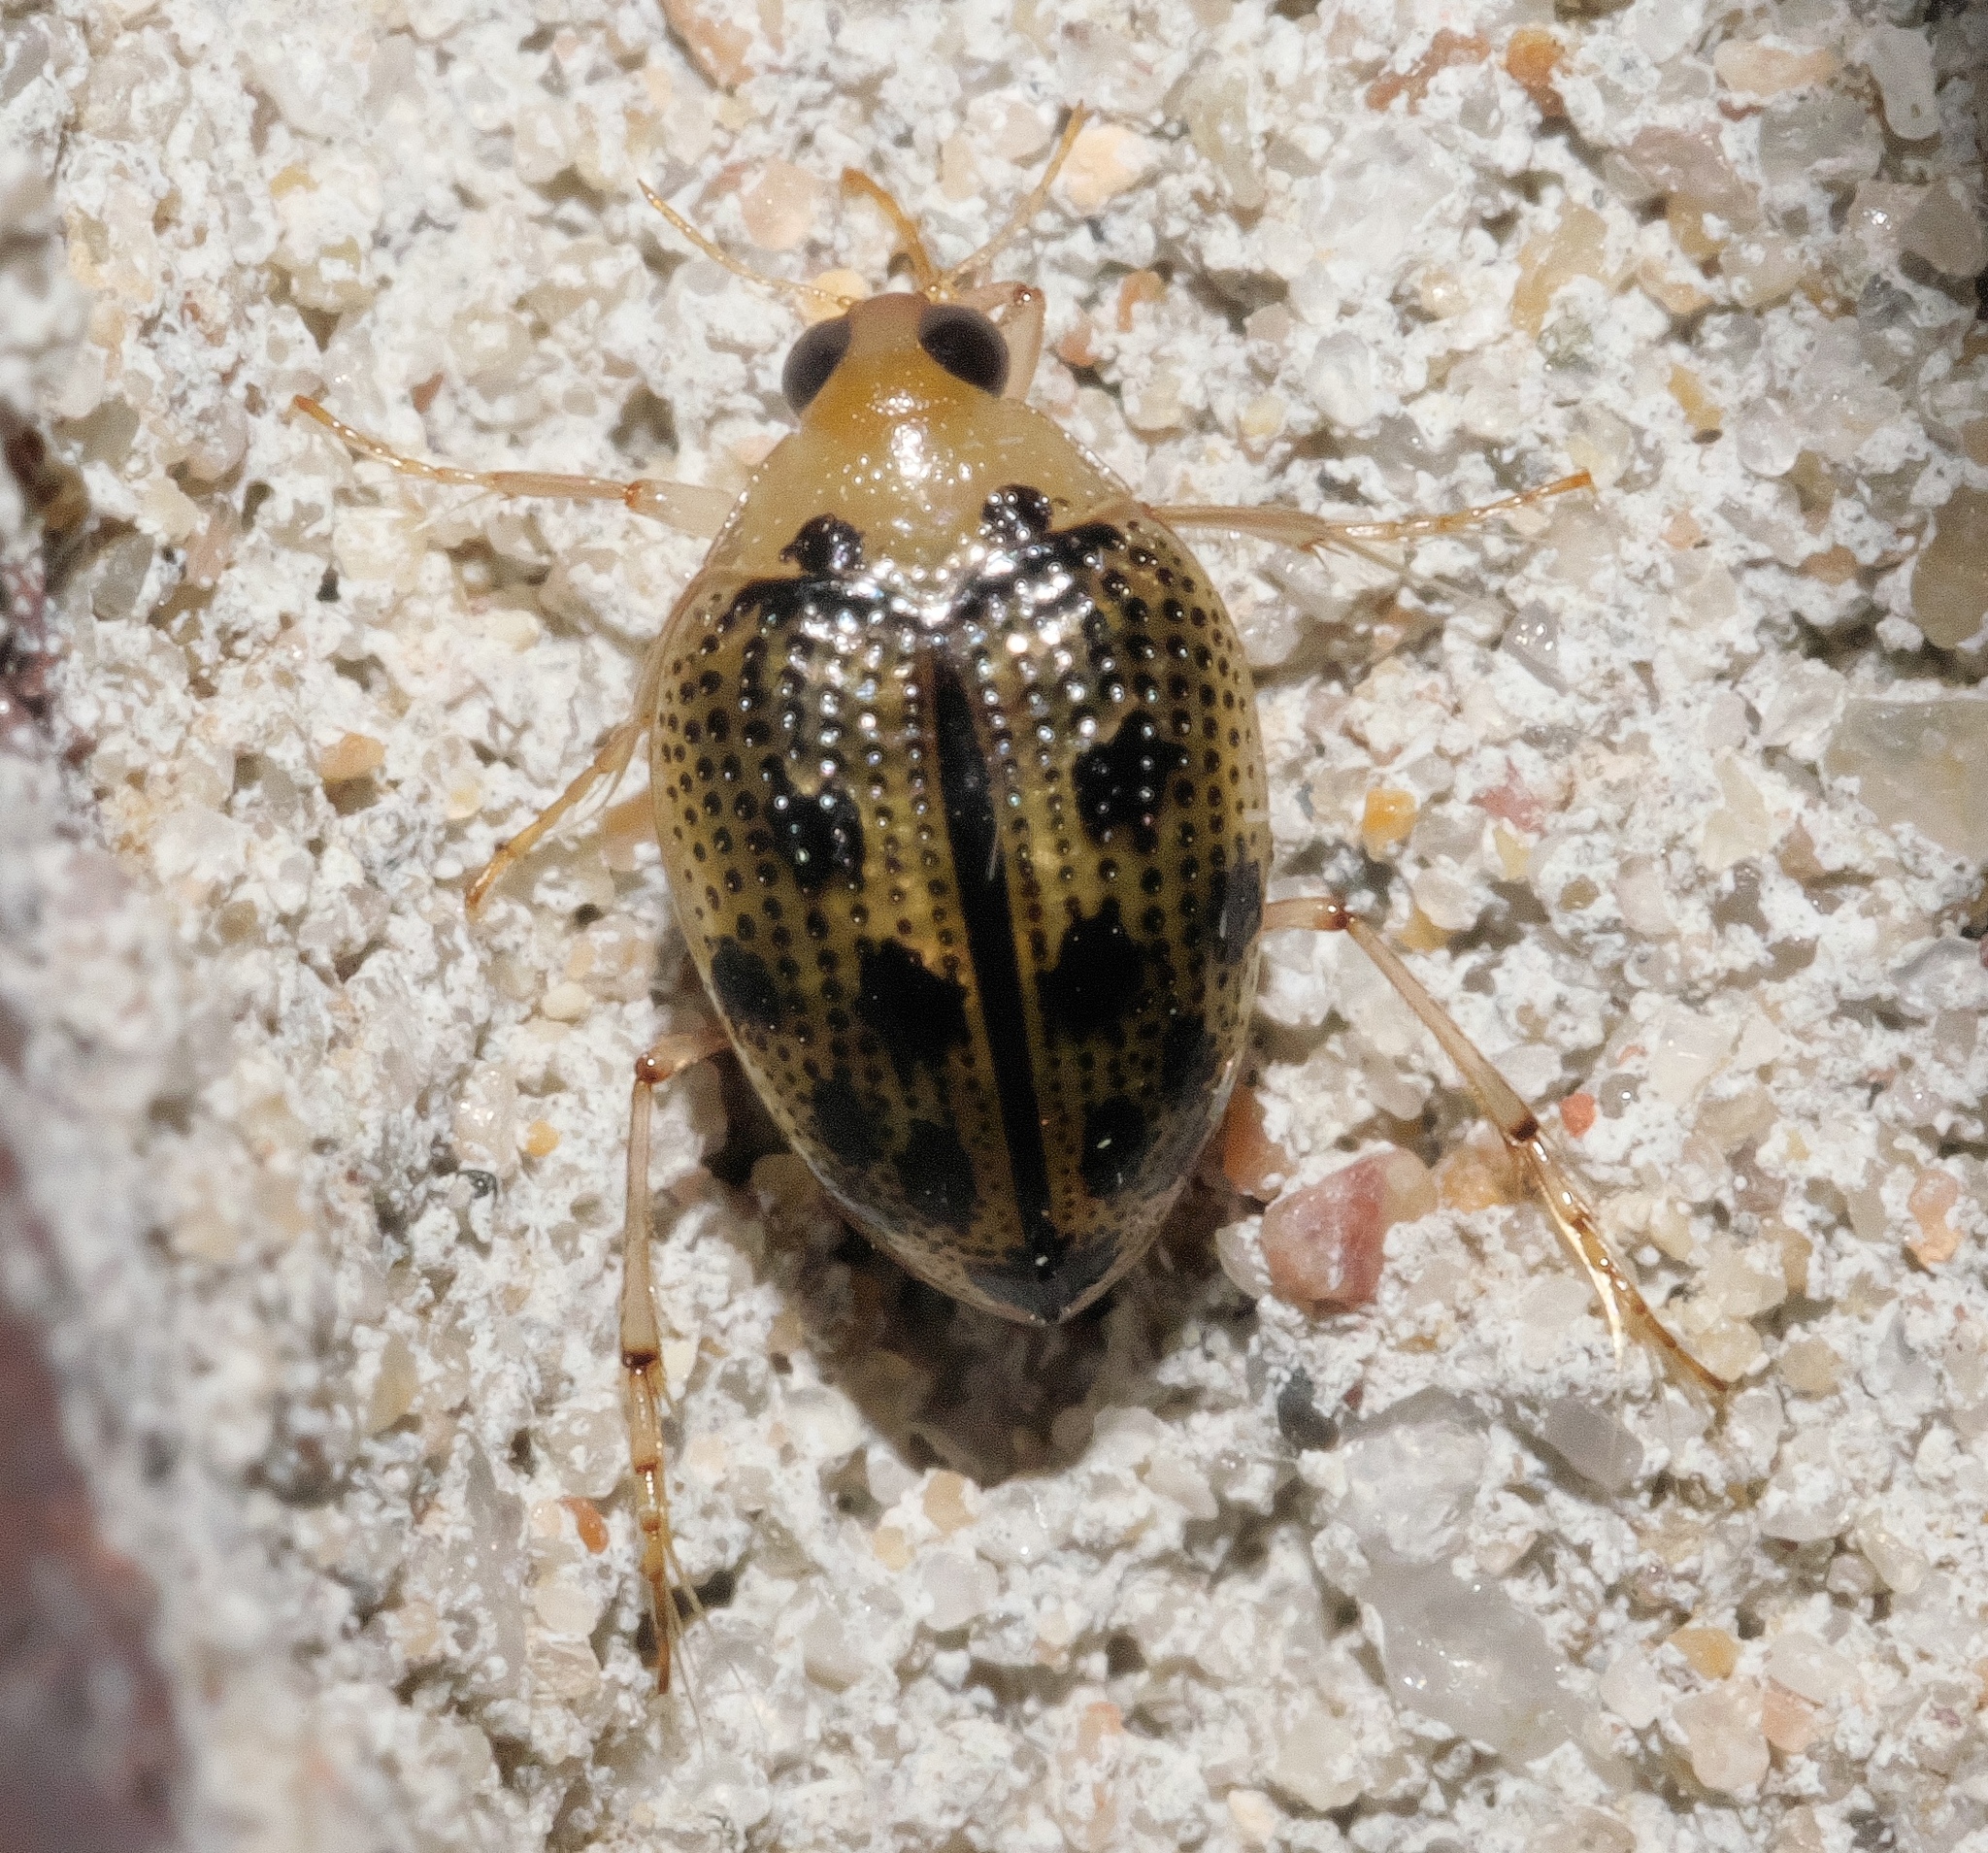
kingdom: Animalia
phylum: Arthropoda
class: Insecta
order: Coleoptera
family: Haliplidae
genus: Peltodytes
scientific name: Peltodytes litoralis
